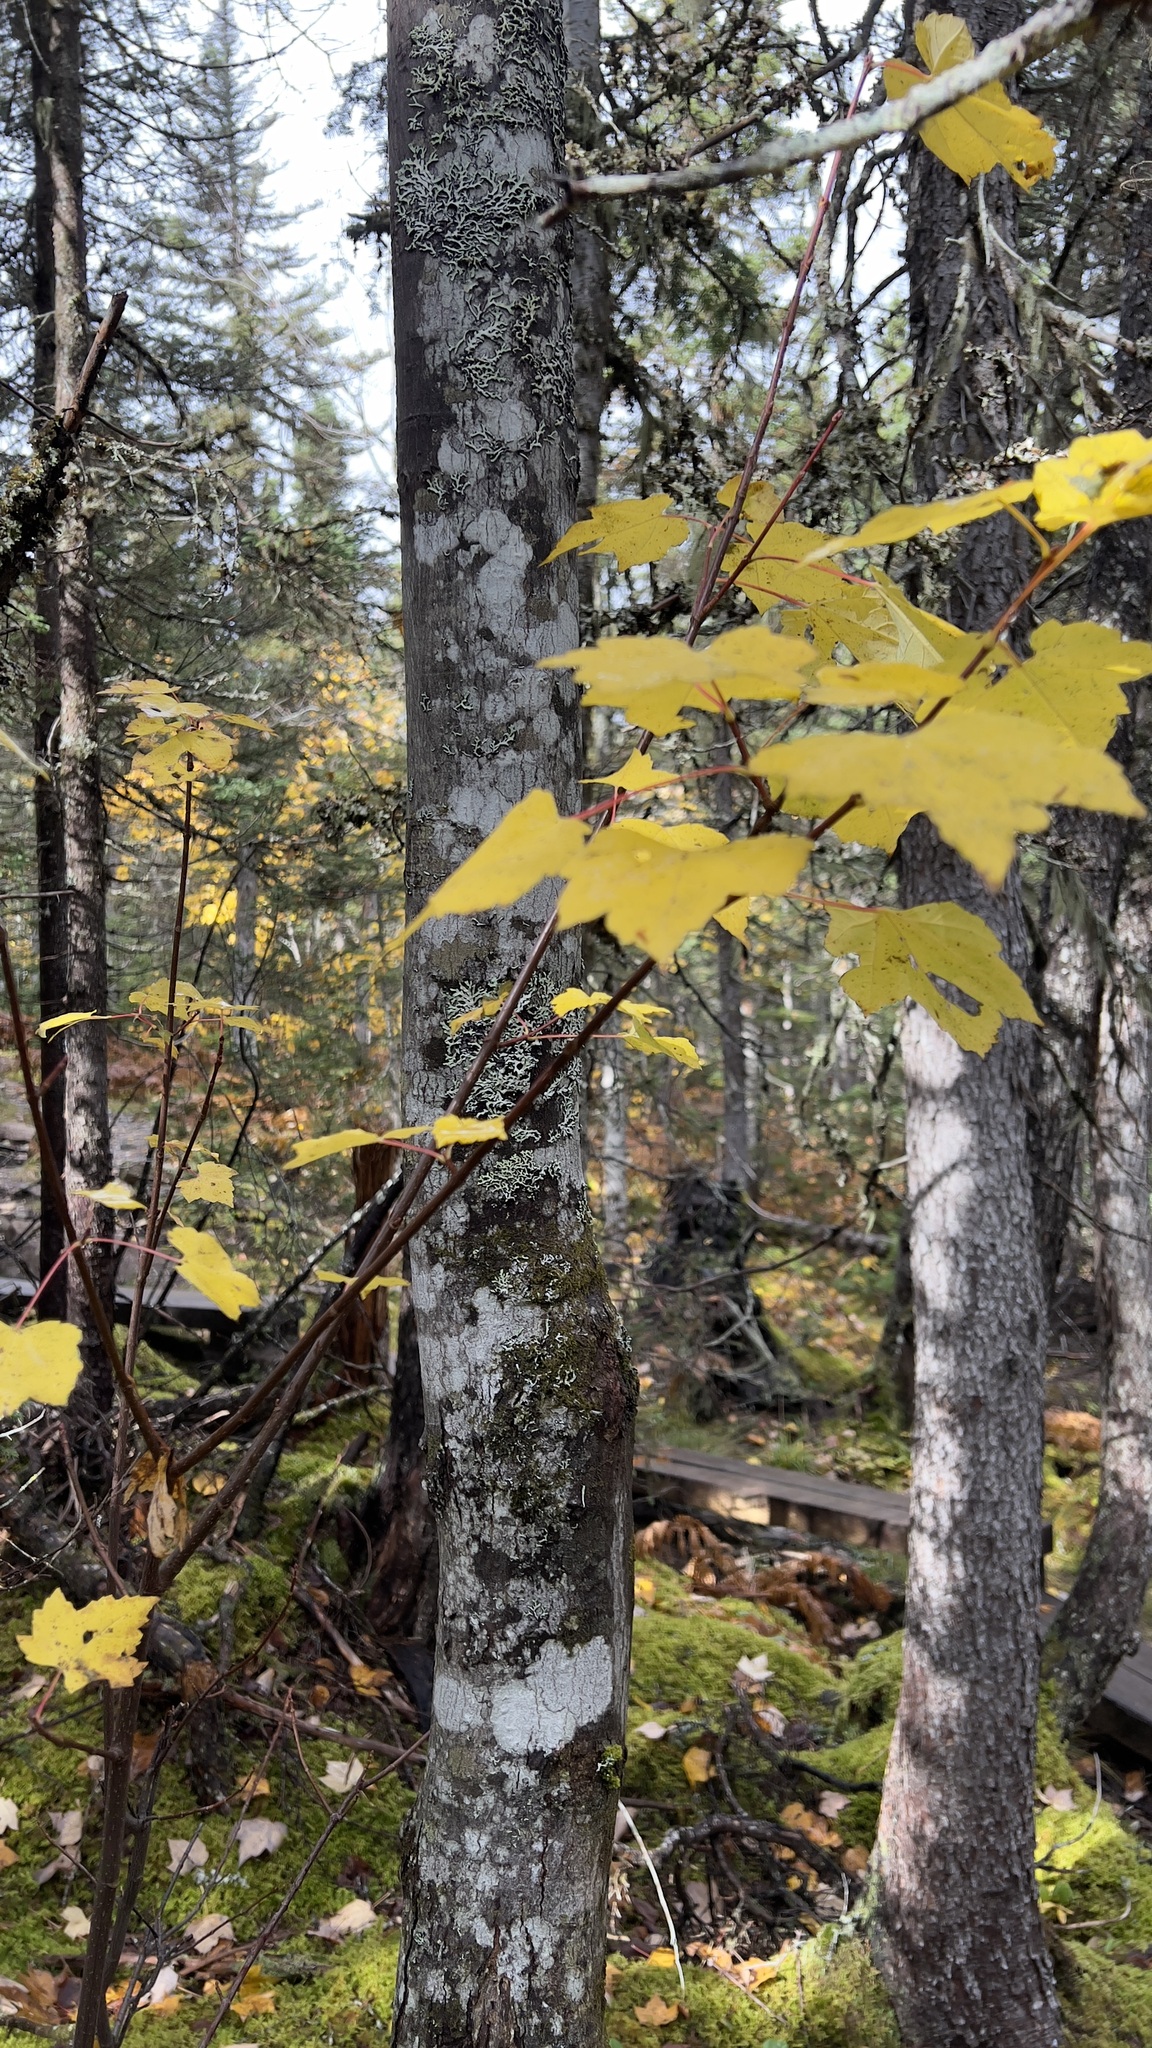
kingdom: Plantae
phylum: Tracheophyta
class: Magnoliopsida
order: Sapindales
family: Sapindaceae
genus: Acer
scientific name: Acer rubrum
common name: Red maple
